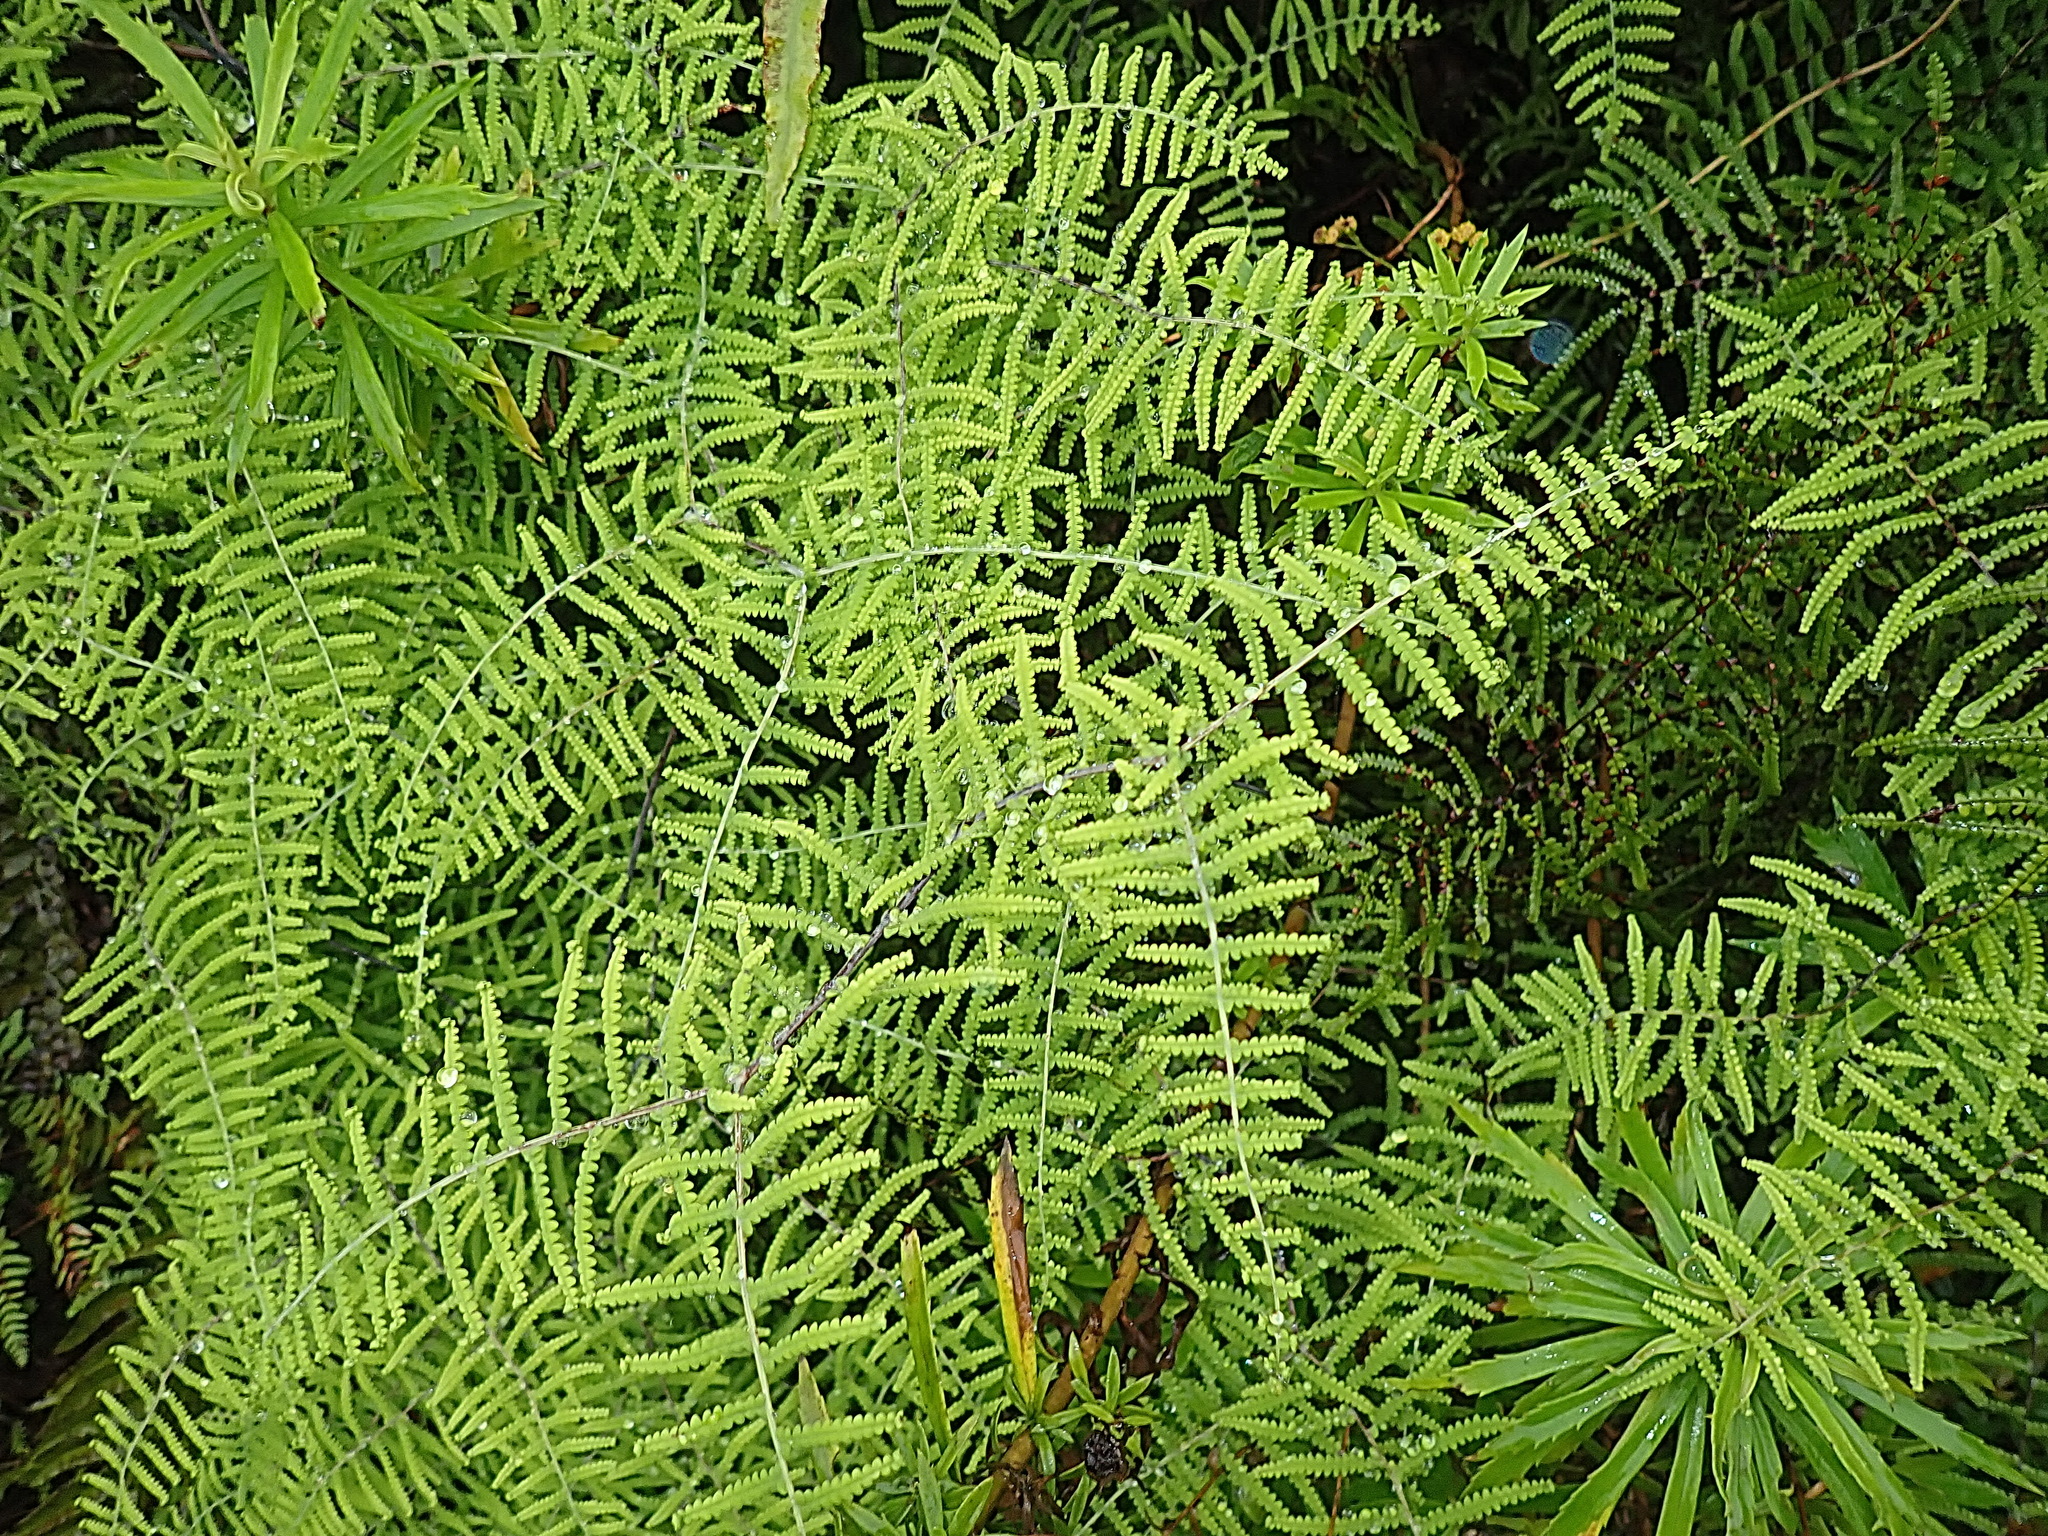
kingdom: Plantae
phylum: Tracheophyta
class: Polypodiopsida
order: Gleicheniales
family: Gleicheniaceae
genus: Gleichenia
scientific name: Gleichenia polypodioides
